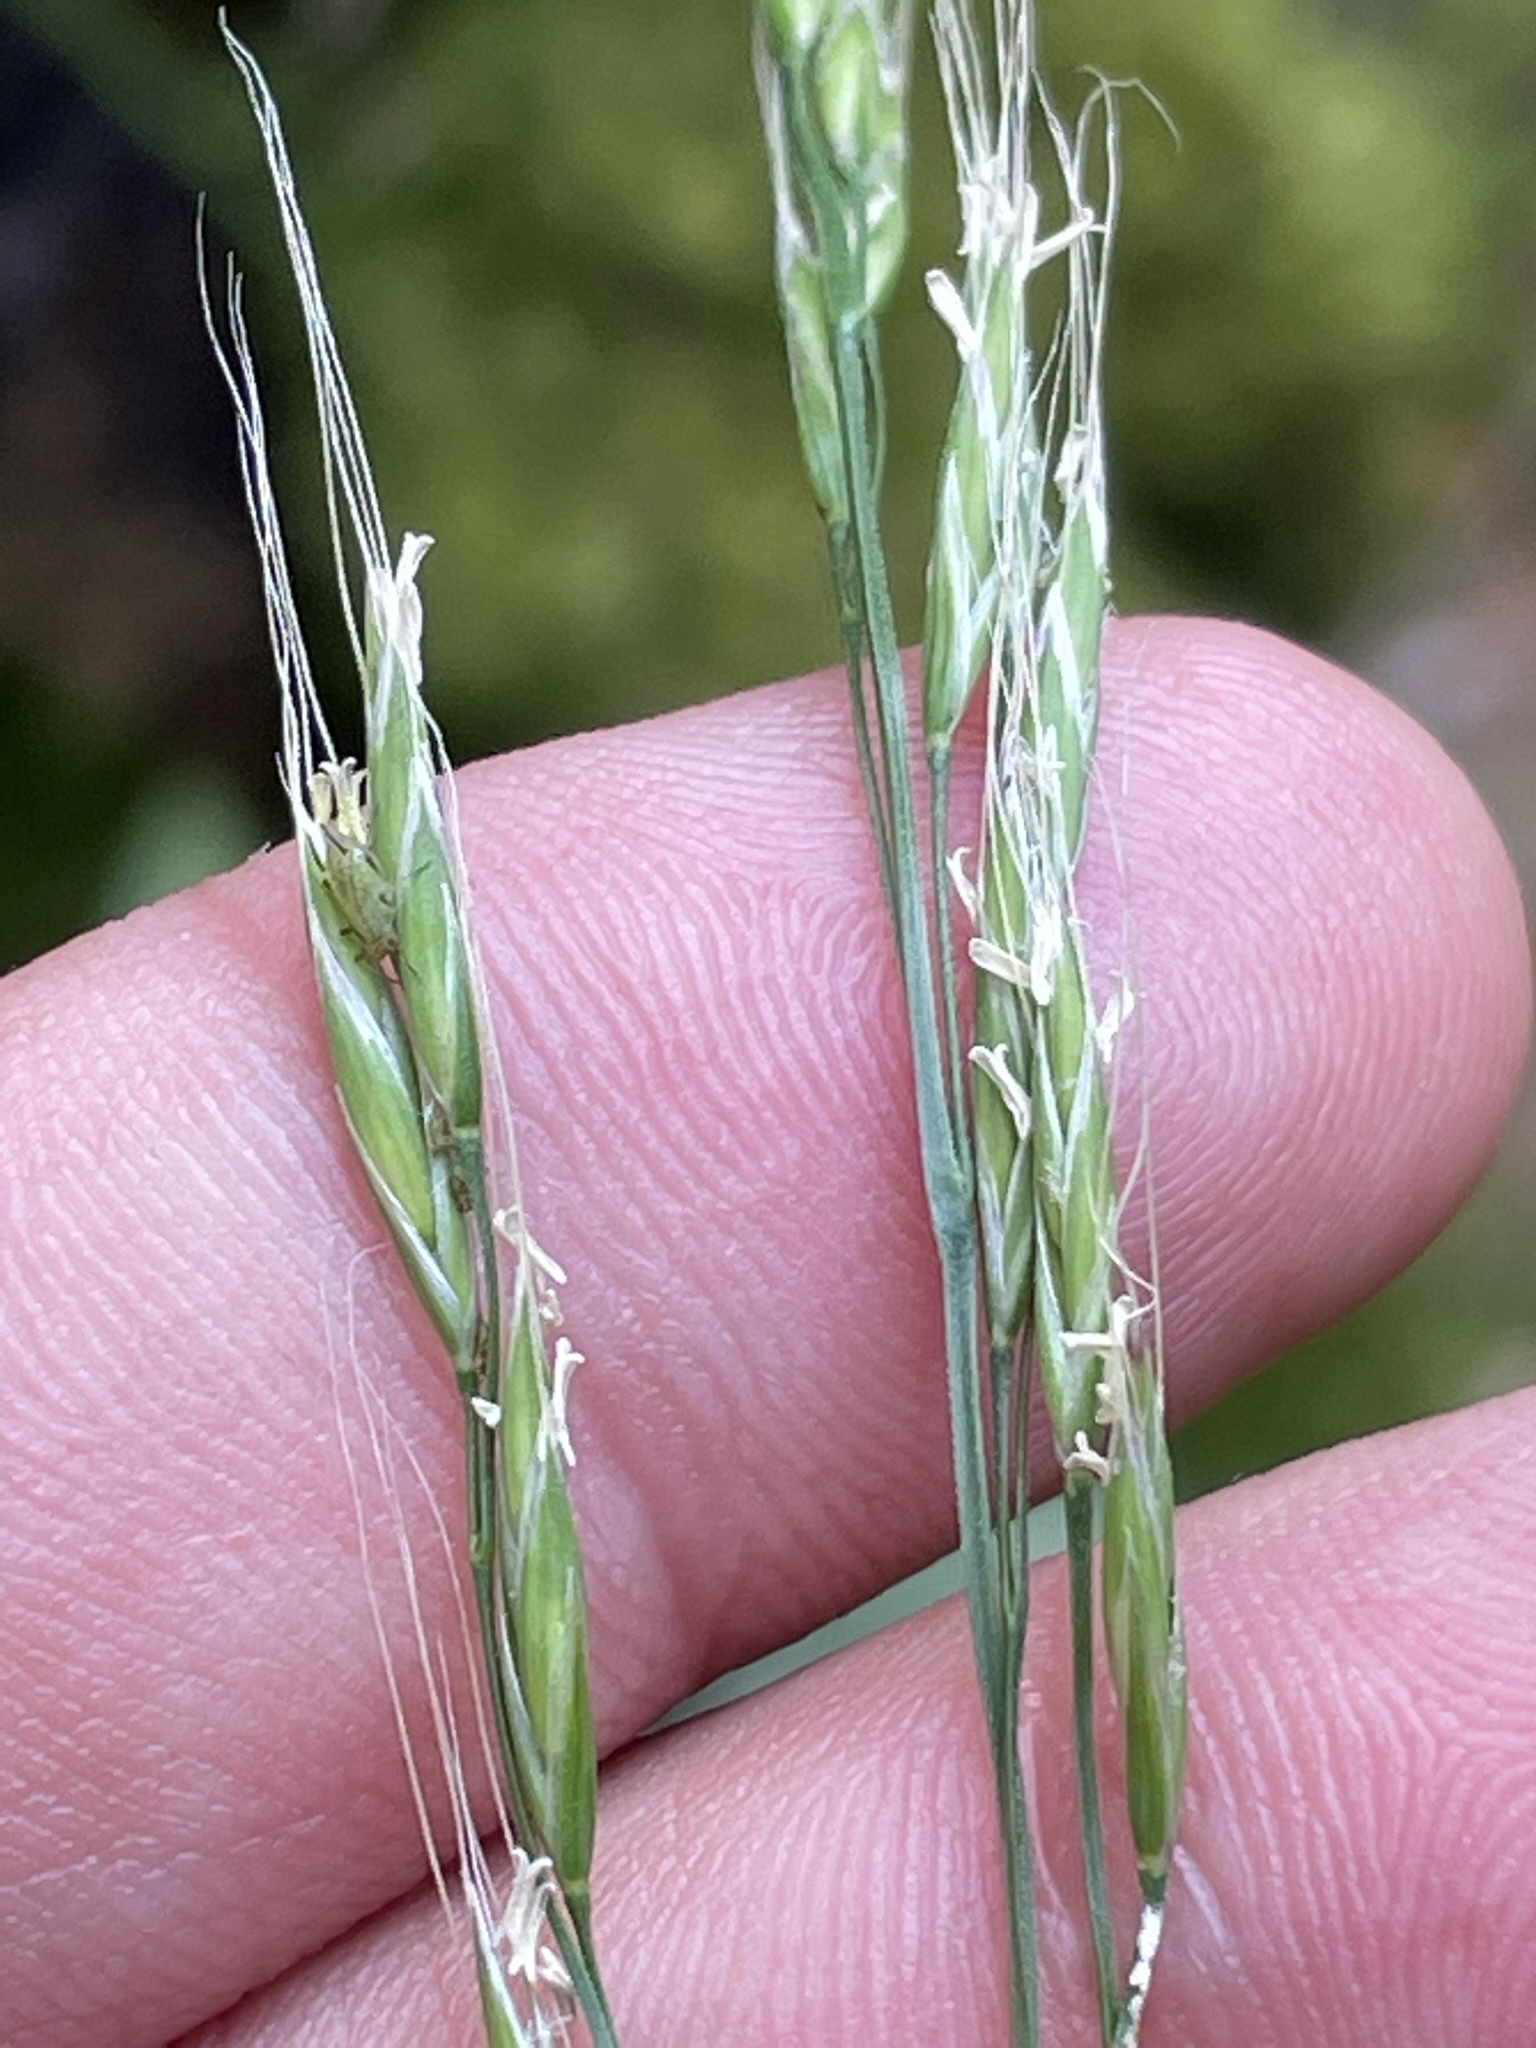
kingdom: Plantae
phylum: Tracheophyta
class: Liliopsida
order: Poales
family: Poaceae
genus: Lolium
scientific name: Lolium giganteum
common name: Giant fescue
